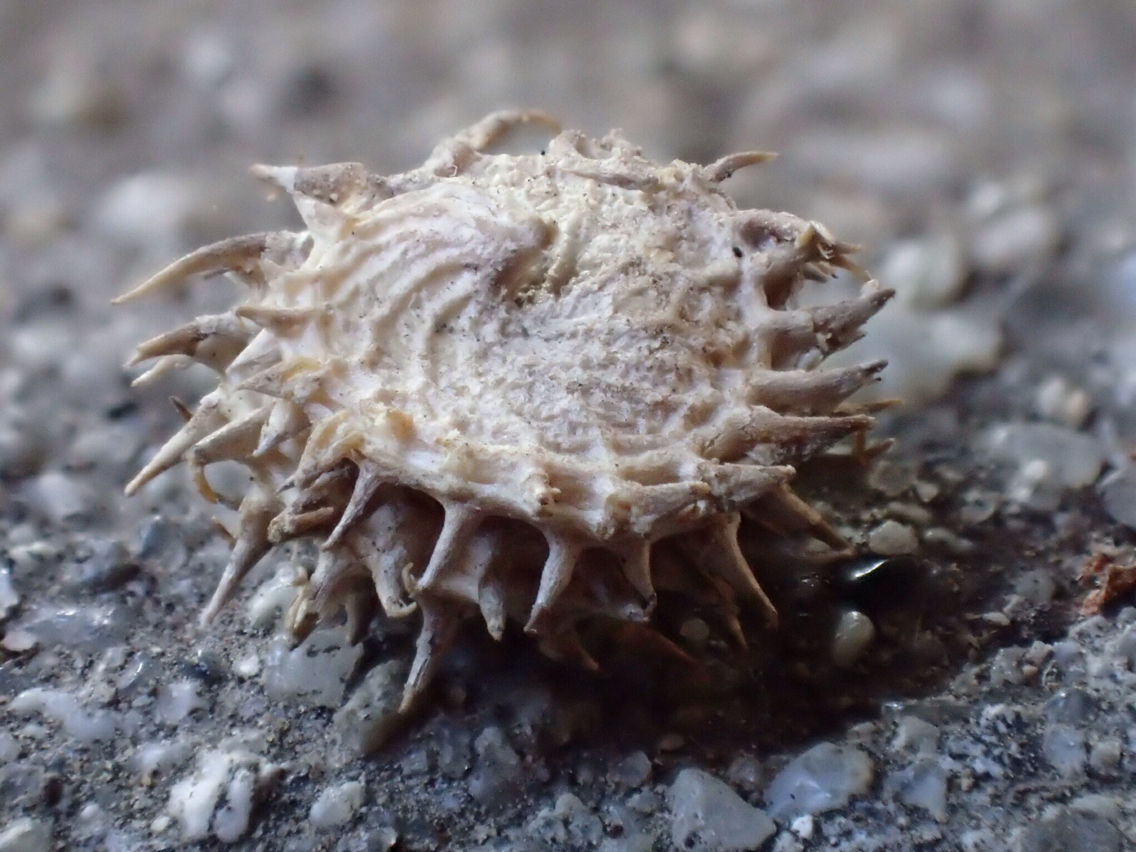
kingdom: Plantae
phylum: Tracheophyta
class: Magnoliopsida
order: Fabales
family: Fabaceae
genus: Medicago
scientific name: Medicago polymorpha
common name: Burclover
